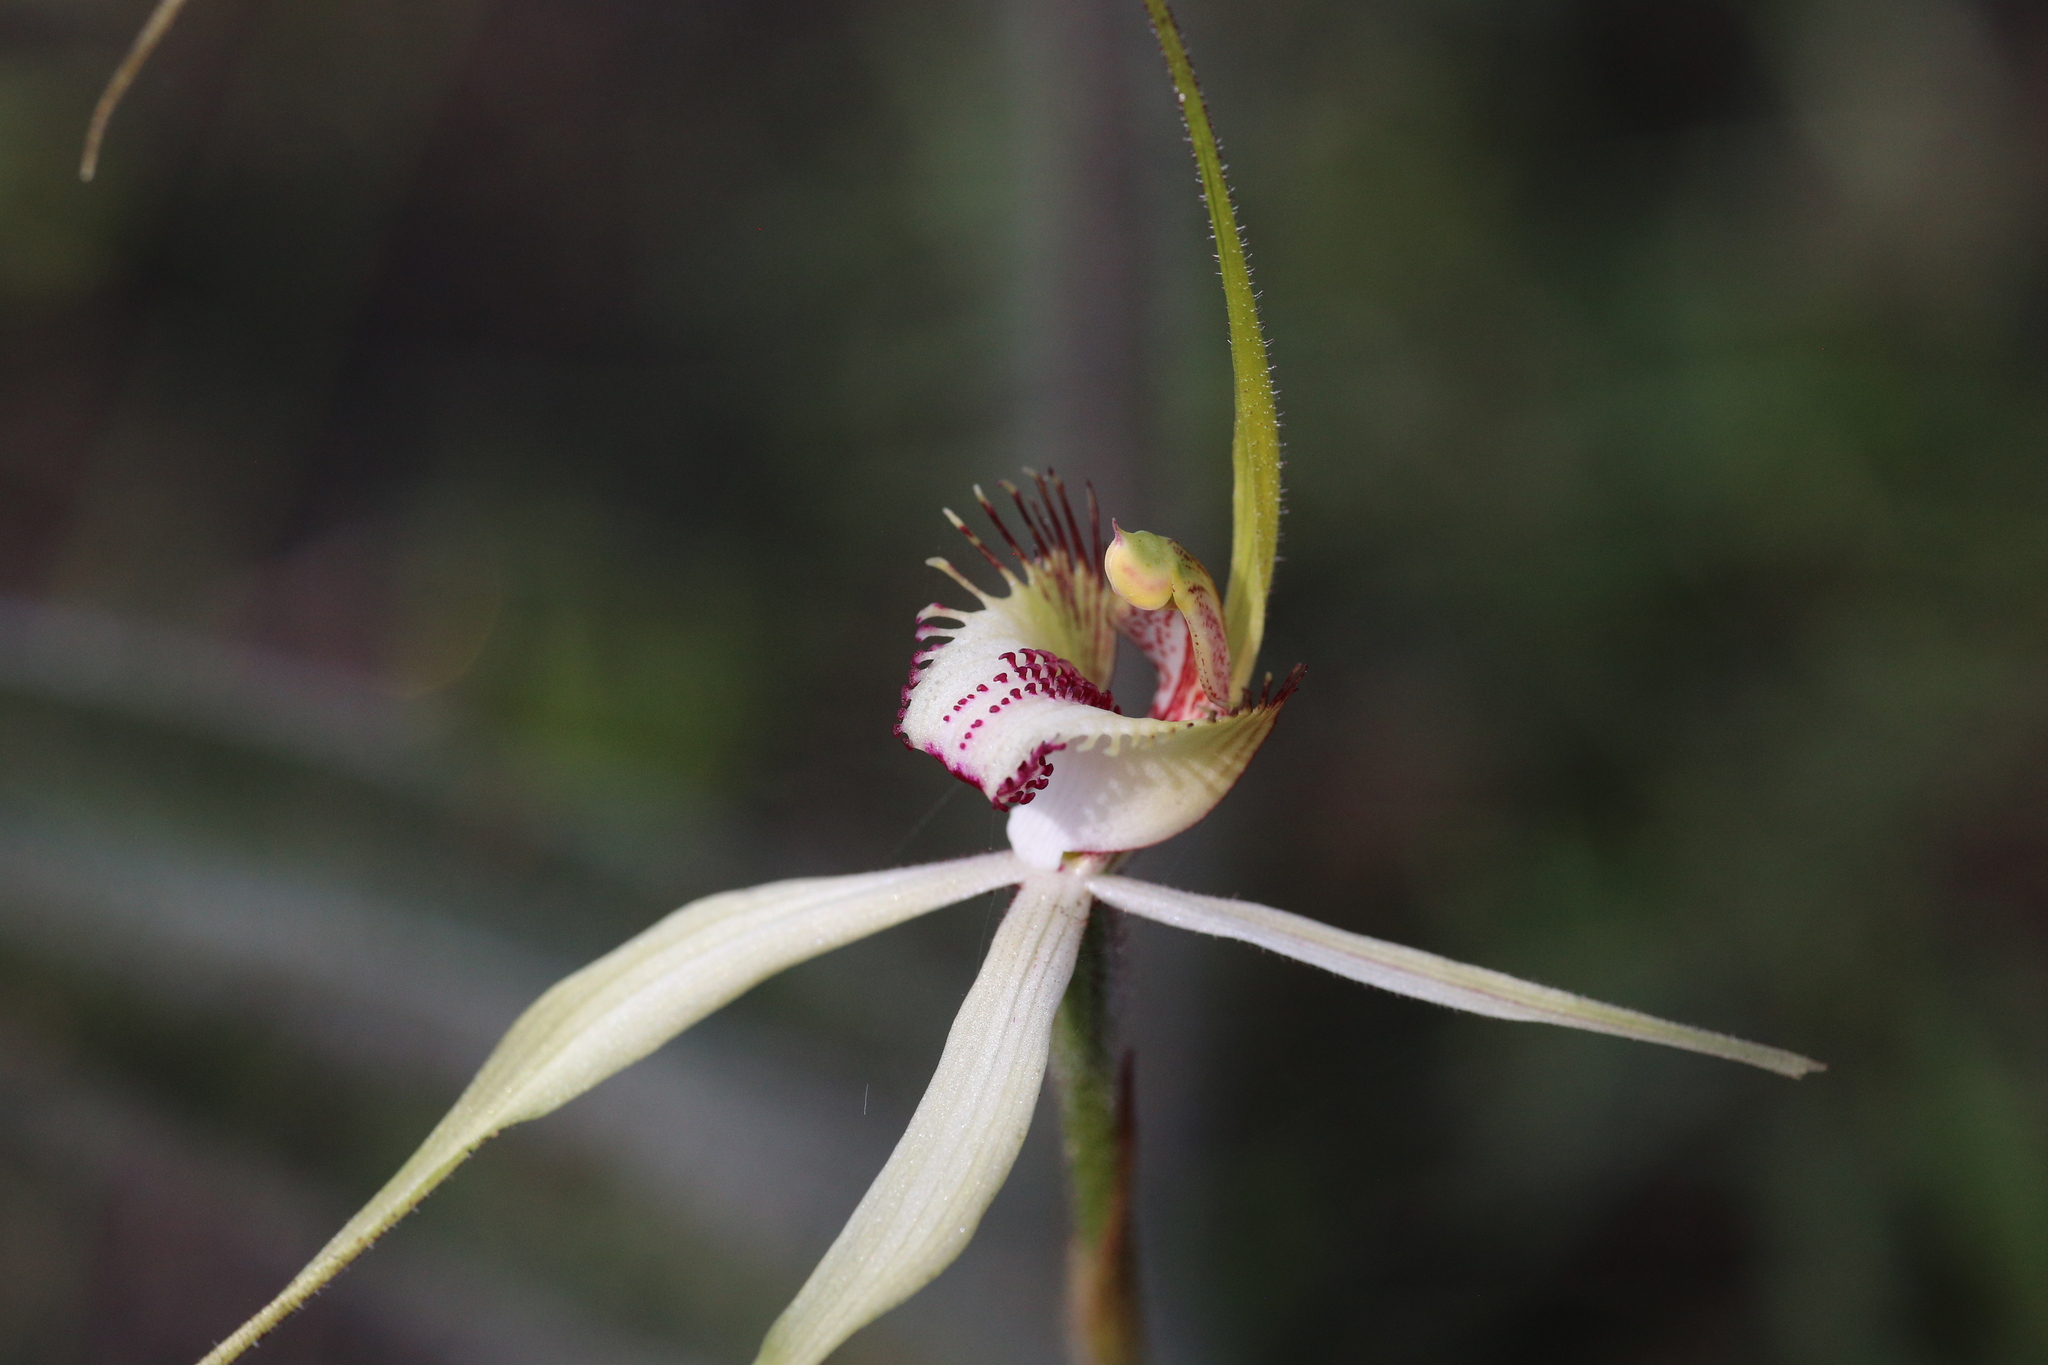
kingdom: Plantae
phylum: Tracheophyta
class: Liliopsida
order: Asparagales
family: Orchidaceae
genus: Caladenia
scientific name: Caladenia cala
